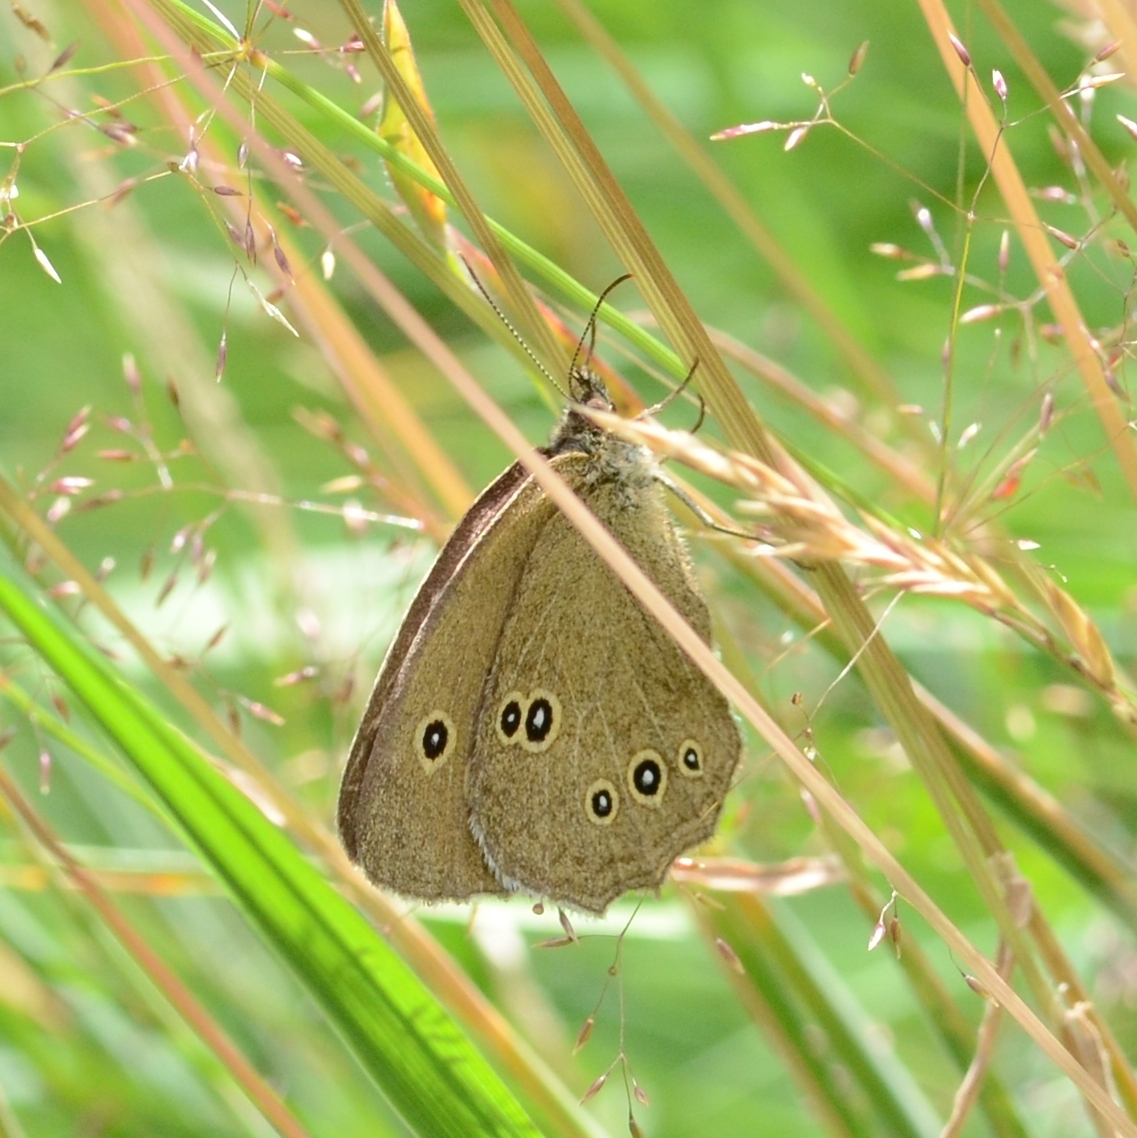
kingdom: Animalia
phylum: Arthropoda
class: Insecta
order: Lepidoptera
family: Nymphalidae
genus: Aphantopus
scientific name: Aphantopus hyperantus
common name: Ringlet
